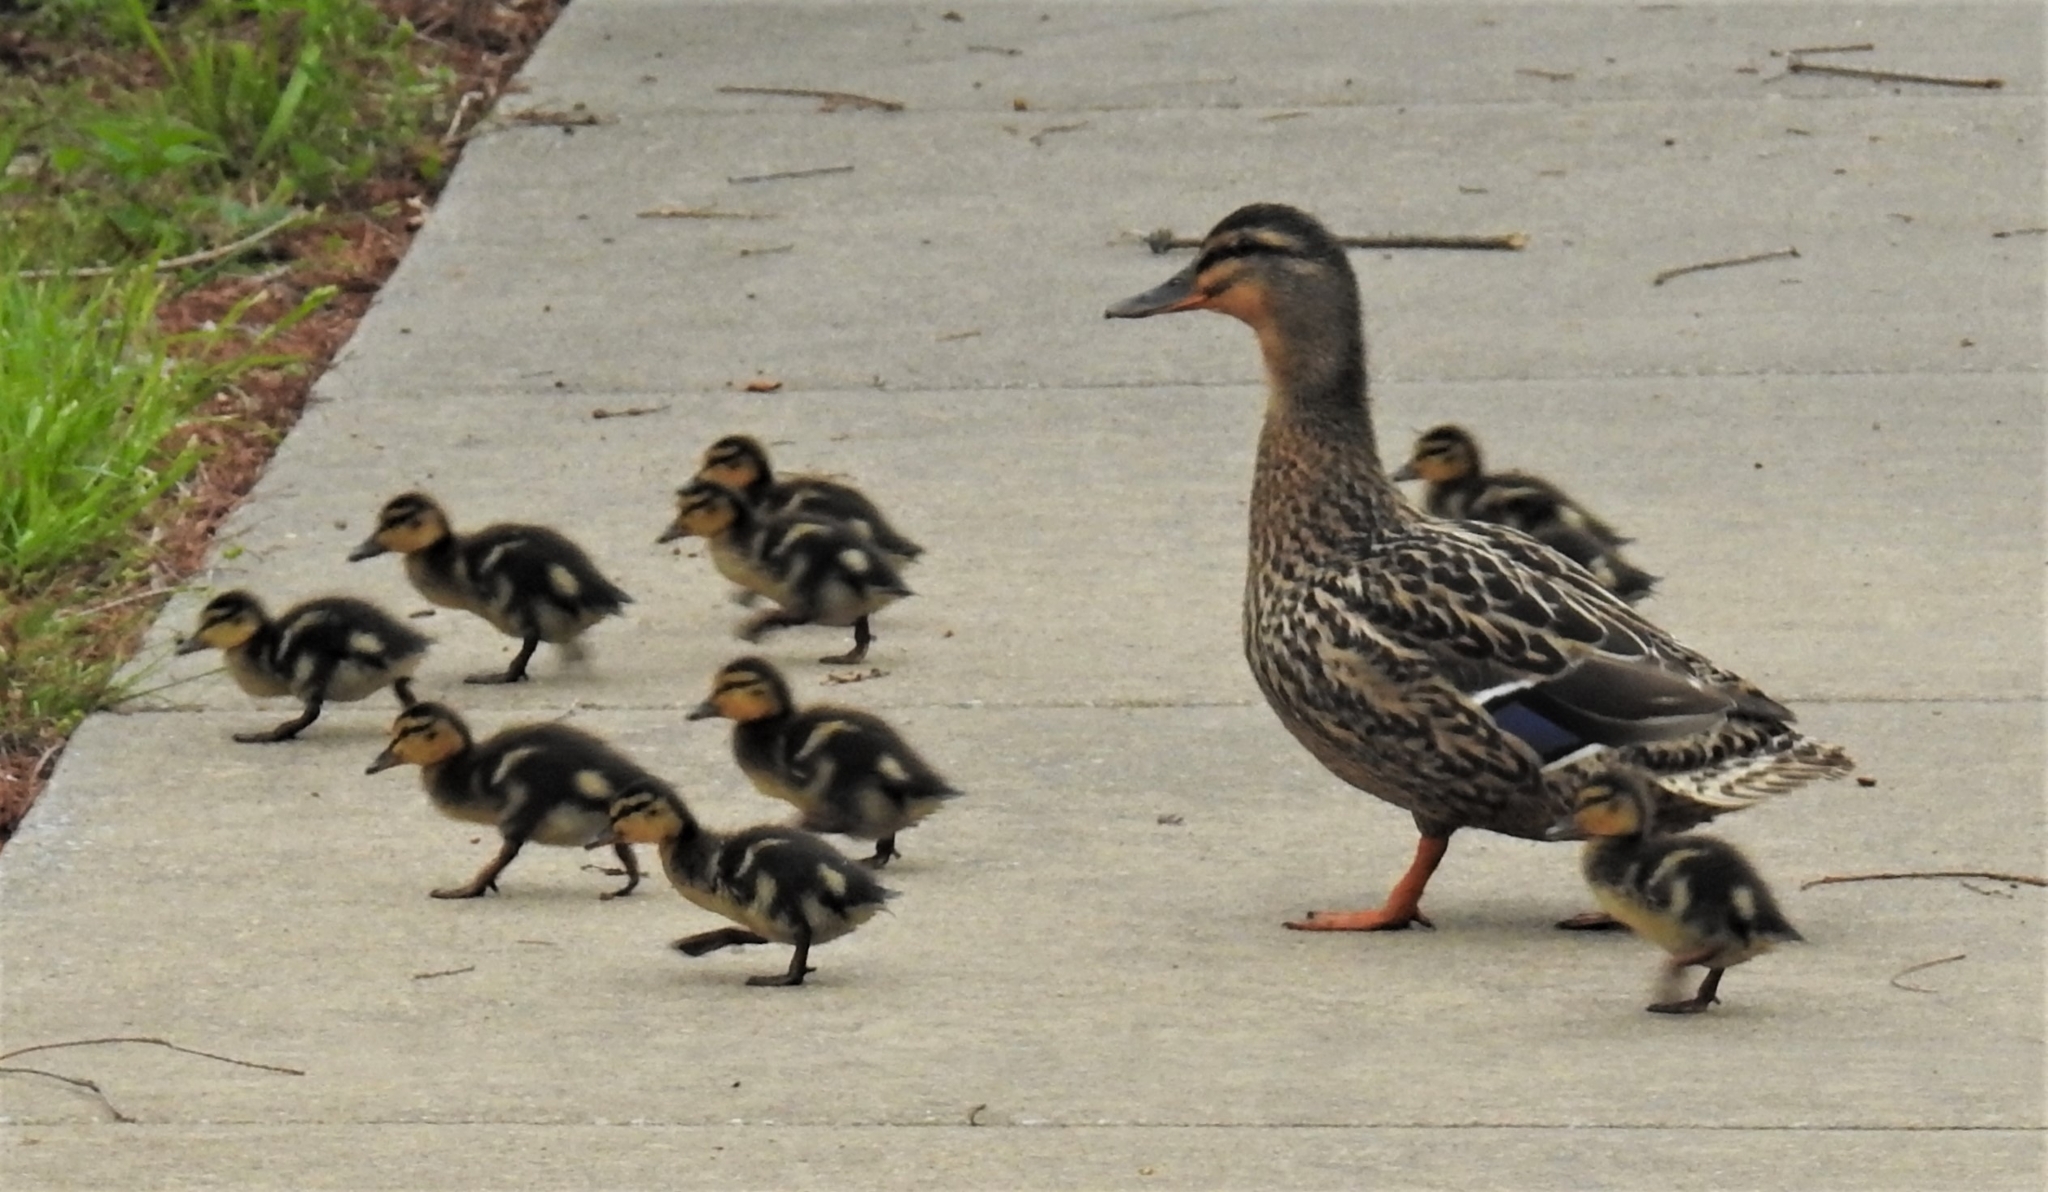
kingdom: Animalia
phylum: Chordata
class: Aves
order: Anseriformes
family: Anatidae
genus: Anas
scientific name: Anas platyrhynchos
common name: Mallard
